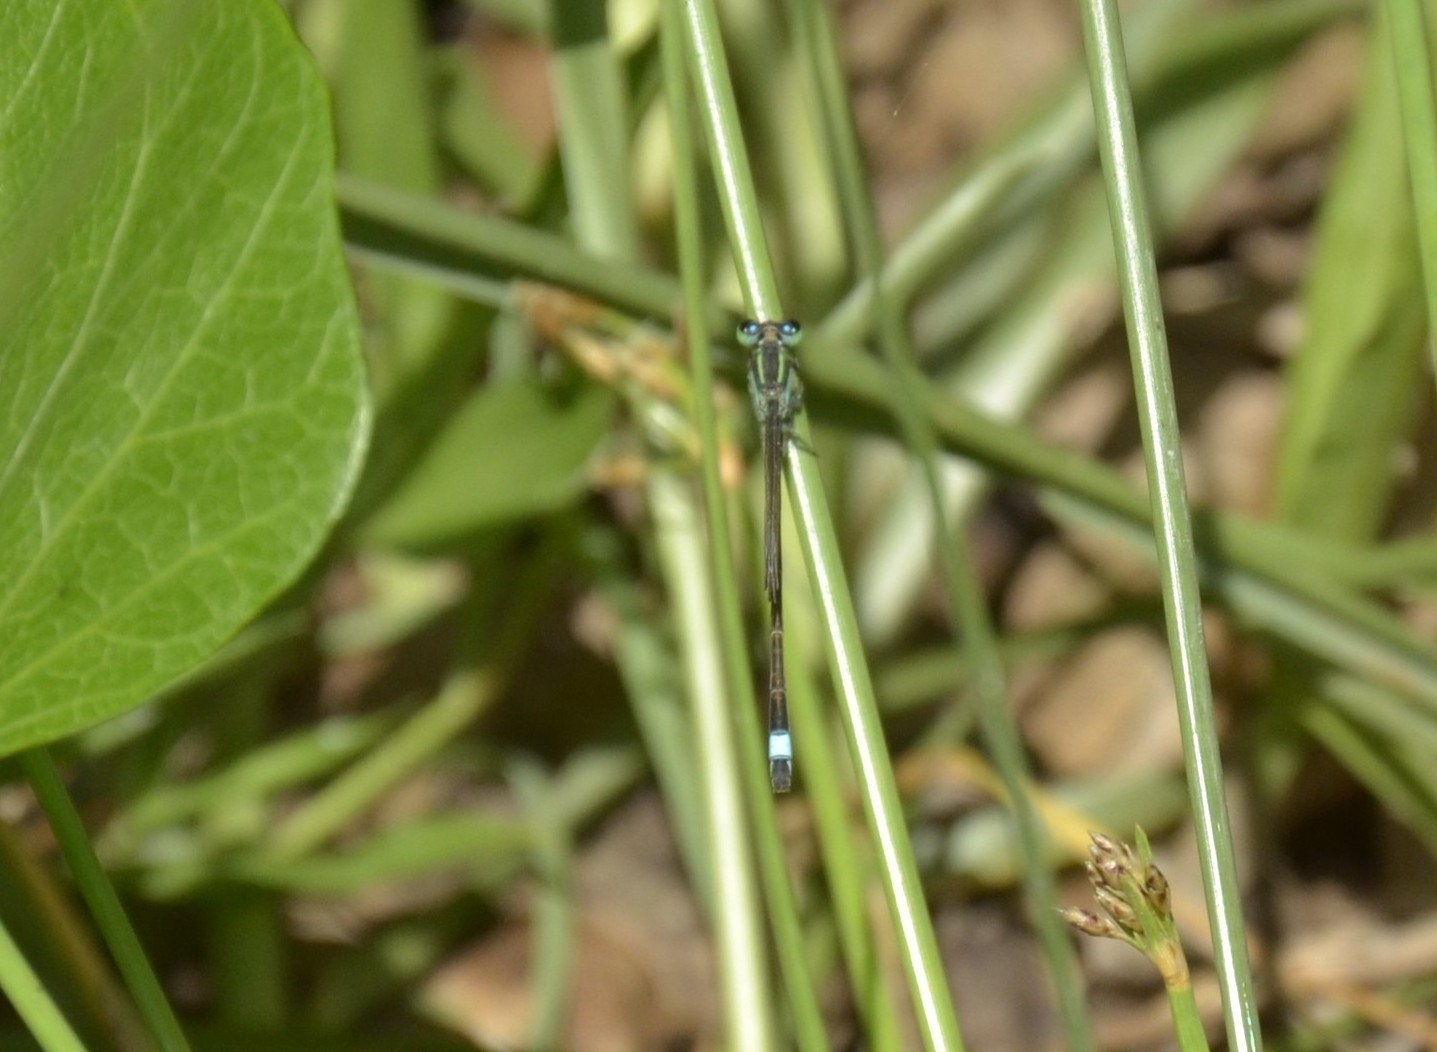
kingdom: Animalia
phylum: Arthropoda
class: Insecta
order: Odonata
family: Coenagrionidae
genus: Ischnura
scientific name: Ischnura senegalensis
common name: Tropical bluetail
